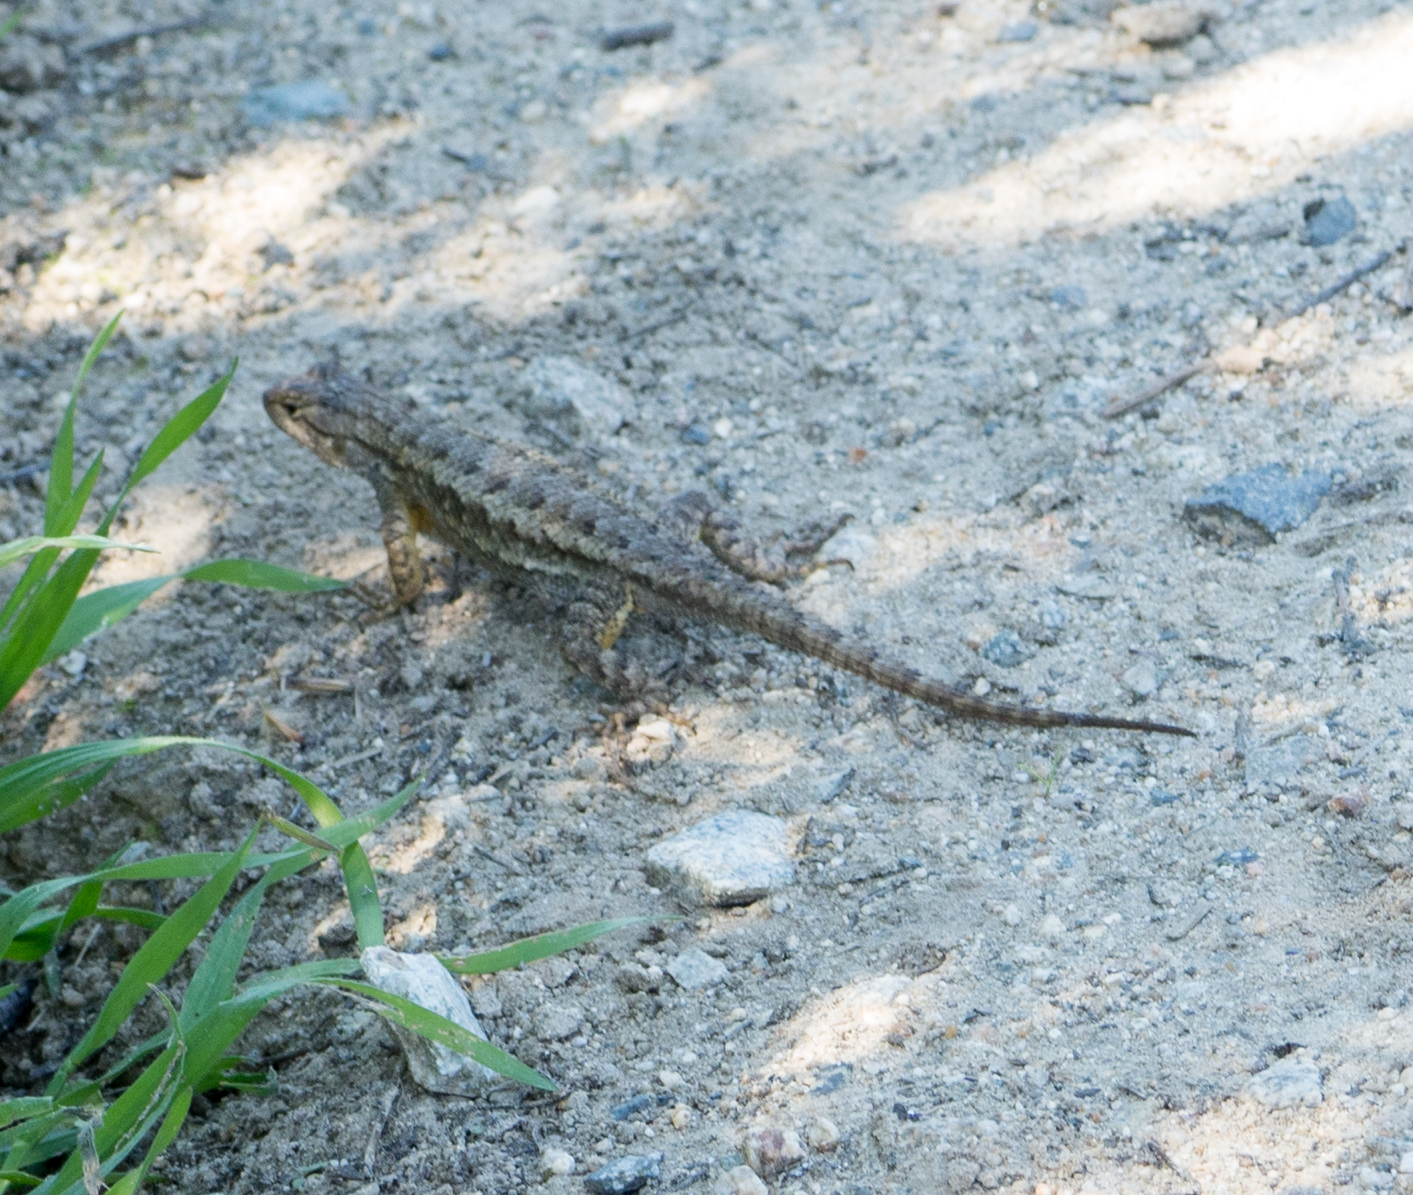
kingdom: Animalia
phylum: Chordata
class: Squamata
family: Phrynosomatidae
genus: Sceloporus
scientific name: Sceloporus occidentalis
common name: Western fence lizard
